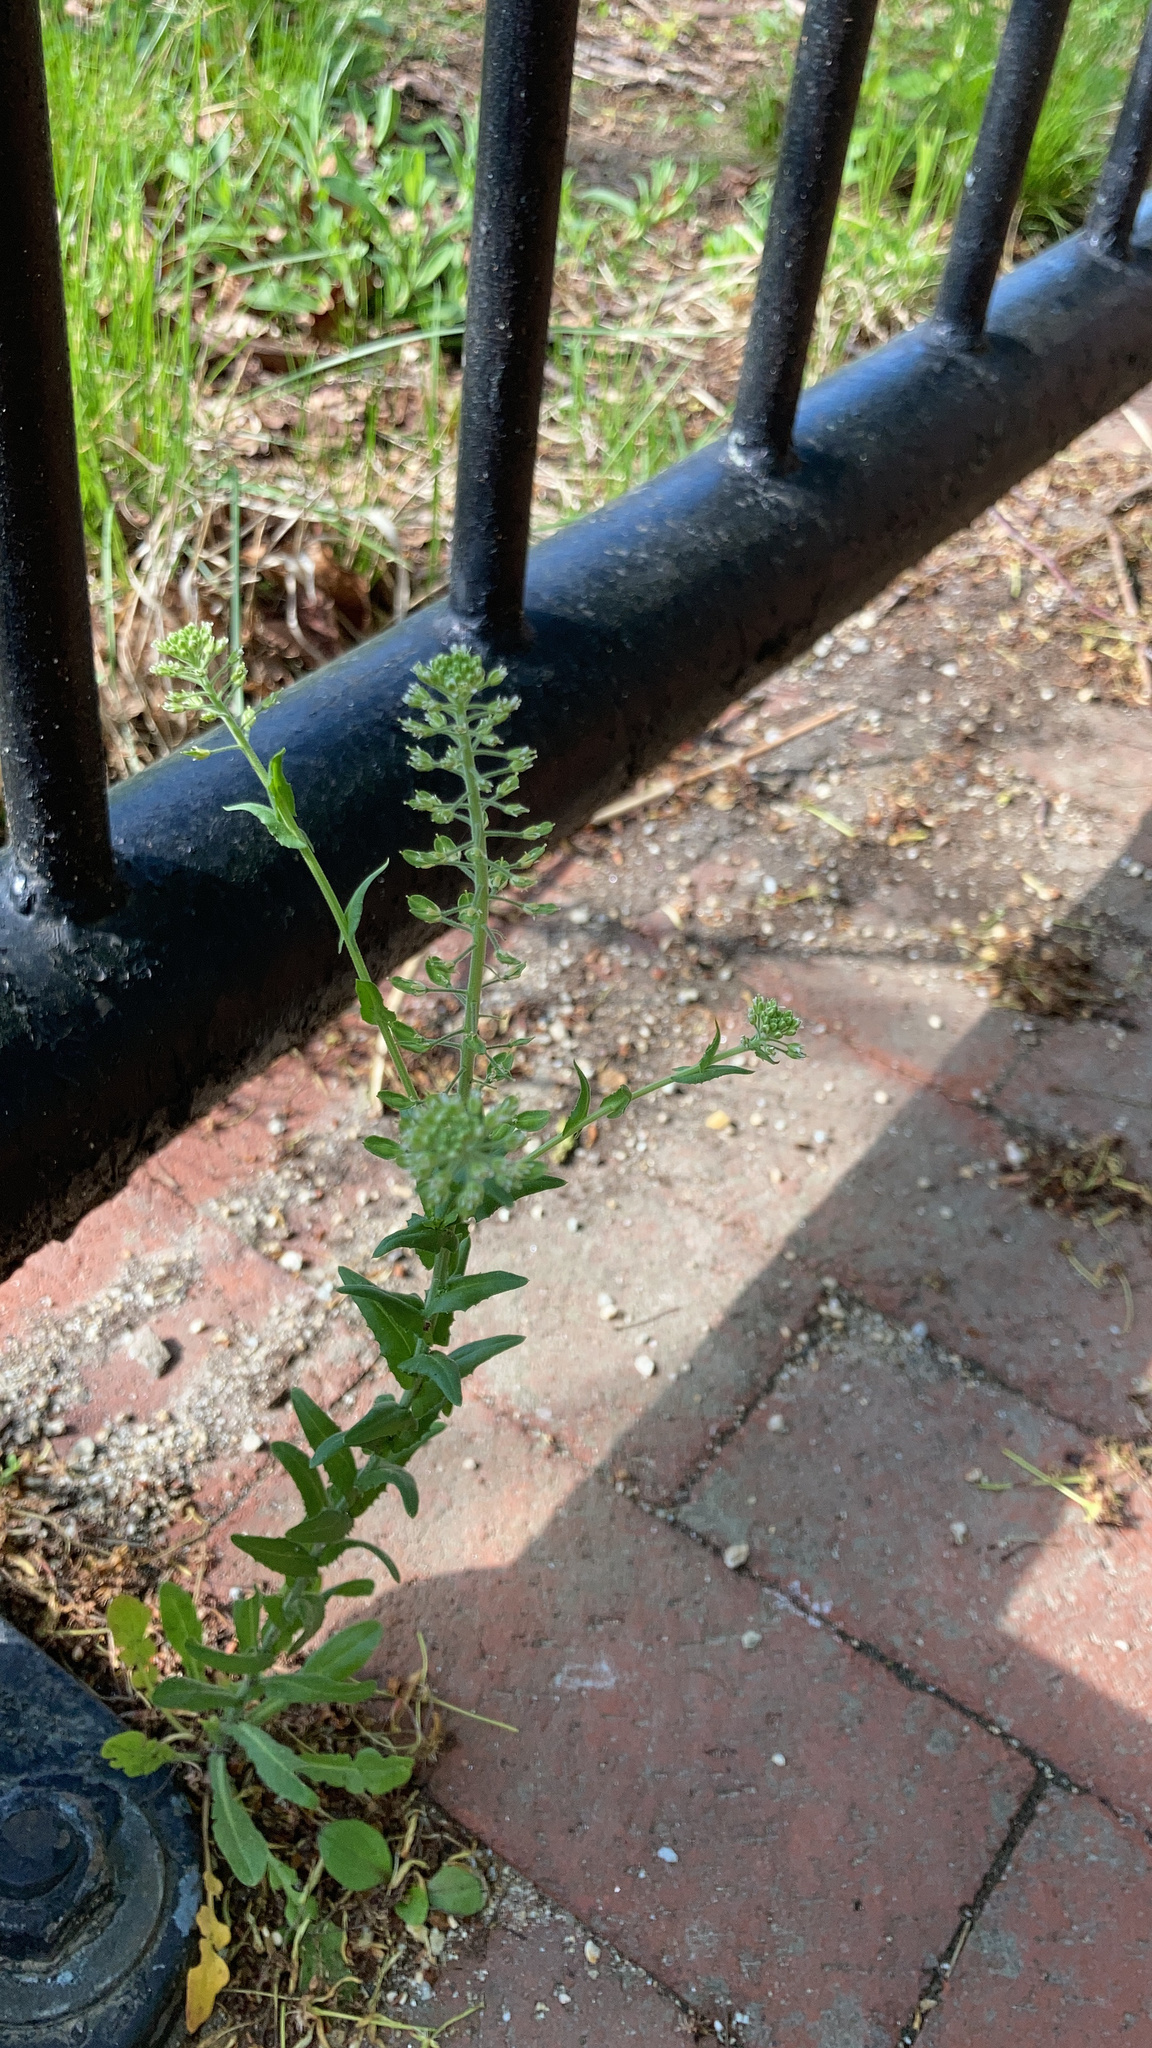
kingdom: Plantae
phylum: Tracheophyta
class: Magnoliopsida
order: Brassicales
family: Brassicaceae
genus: Lepidium
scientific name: Lepidium campestre
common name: Field pepperwort
